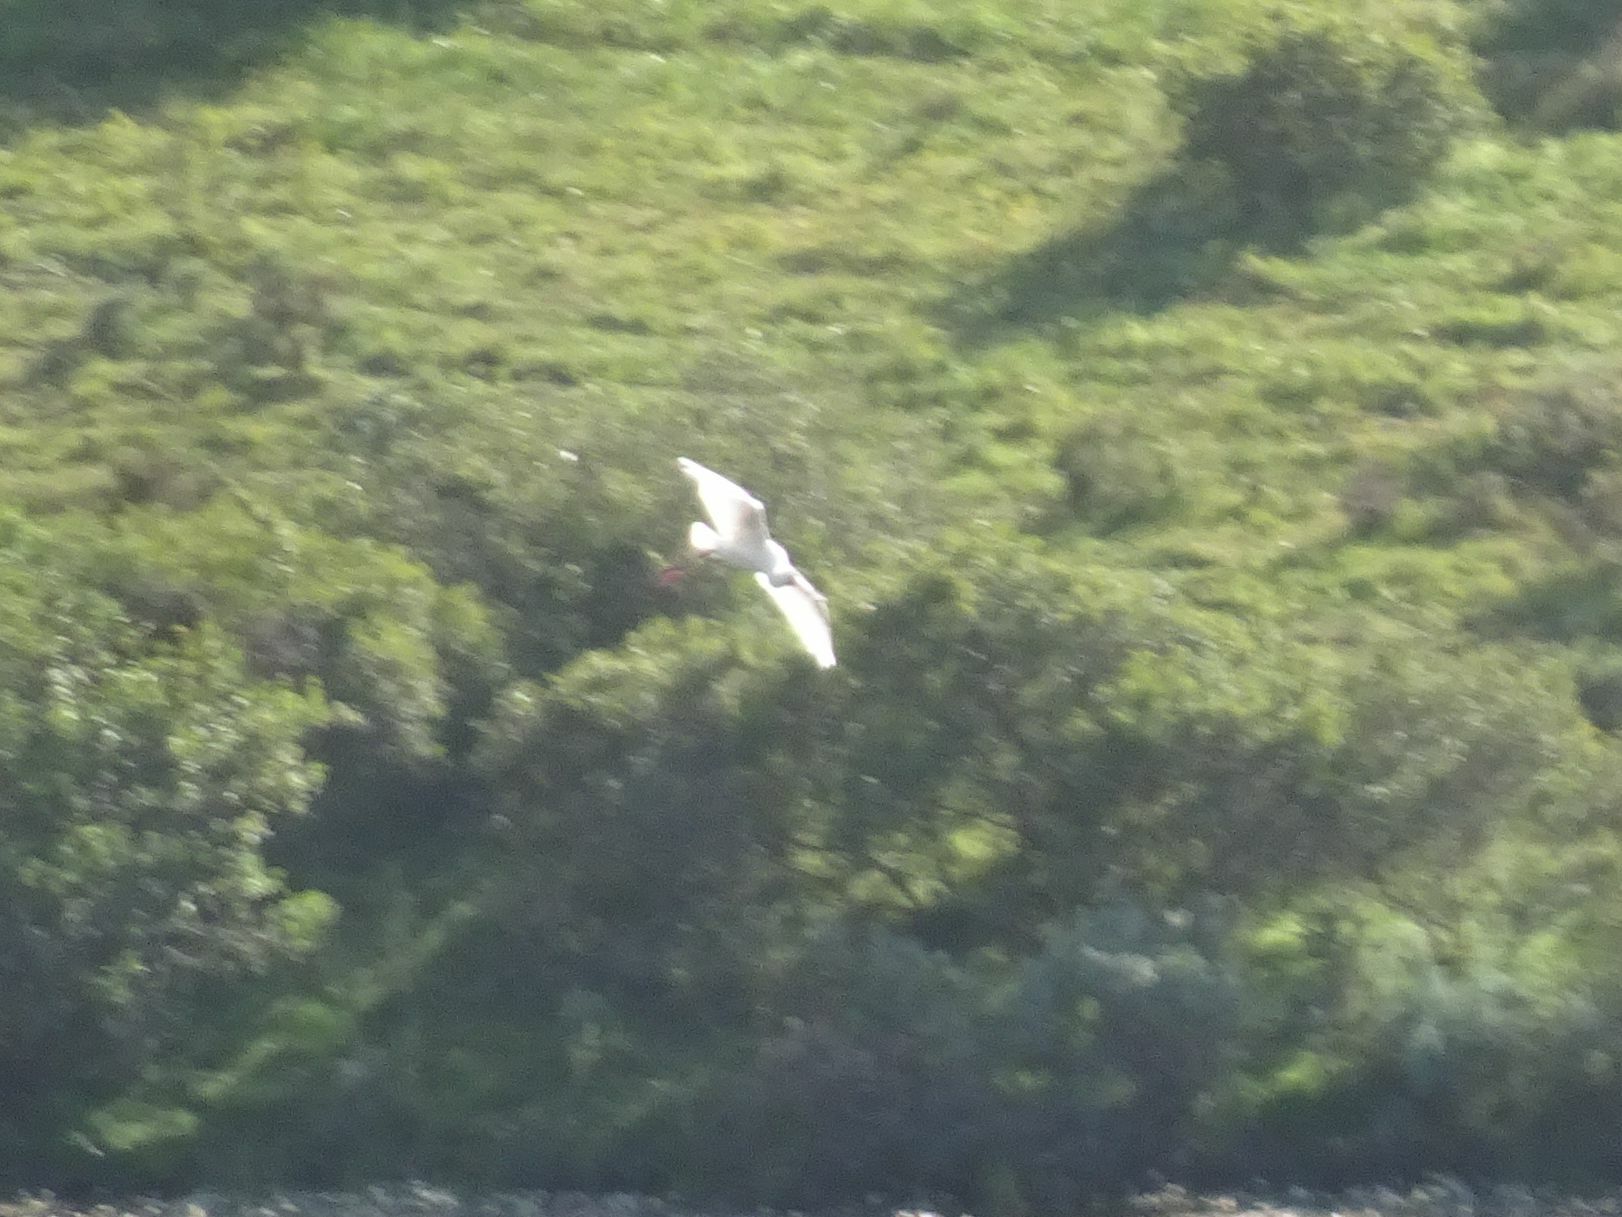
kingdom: Animalia
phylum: Chordata
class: Aves
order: Pelecaniformes
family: Threskiornithidae
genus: Platalea
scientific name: Platalea alba
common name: African spoonbill
